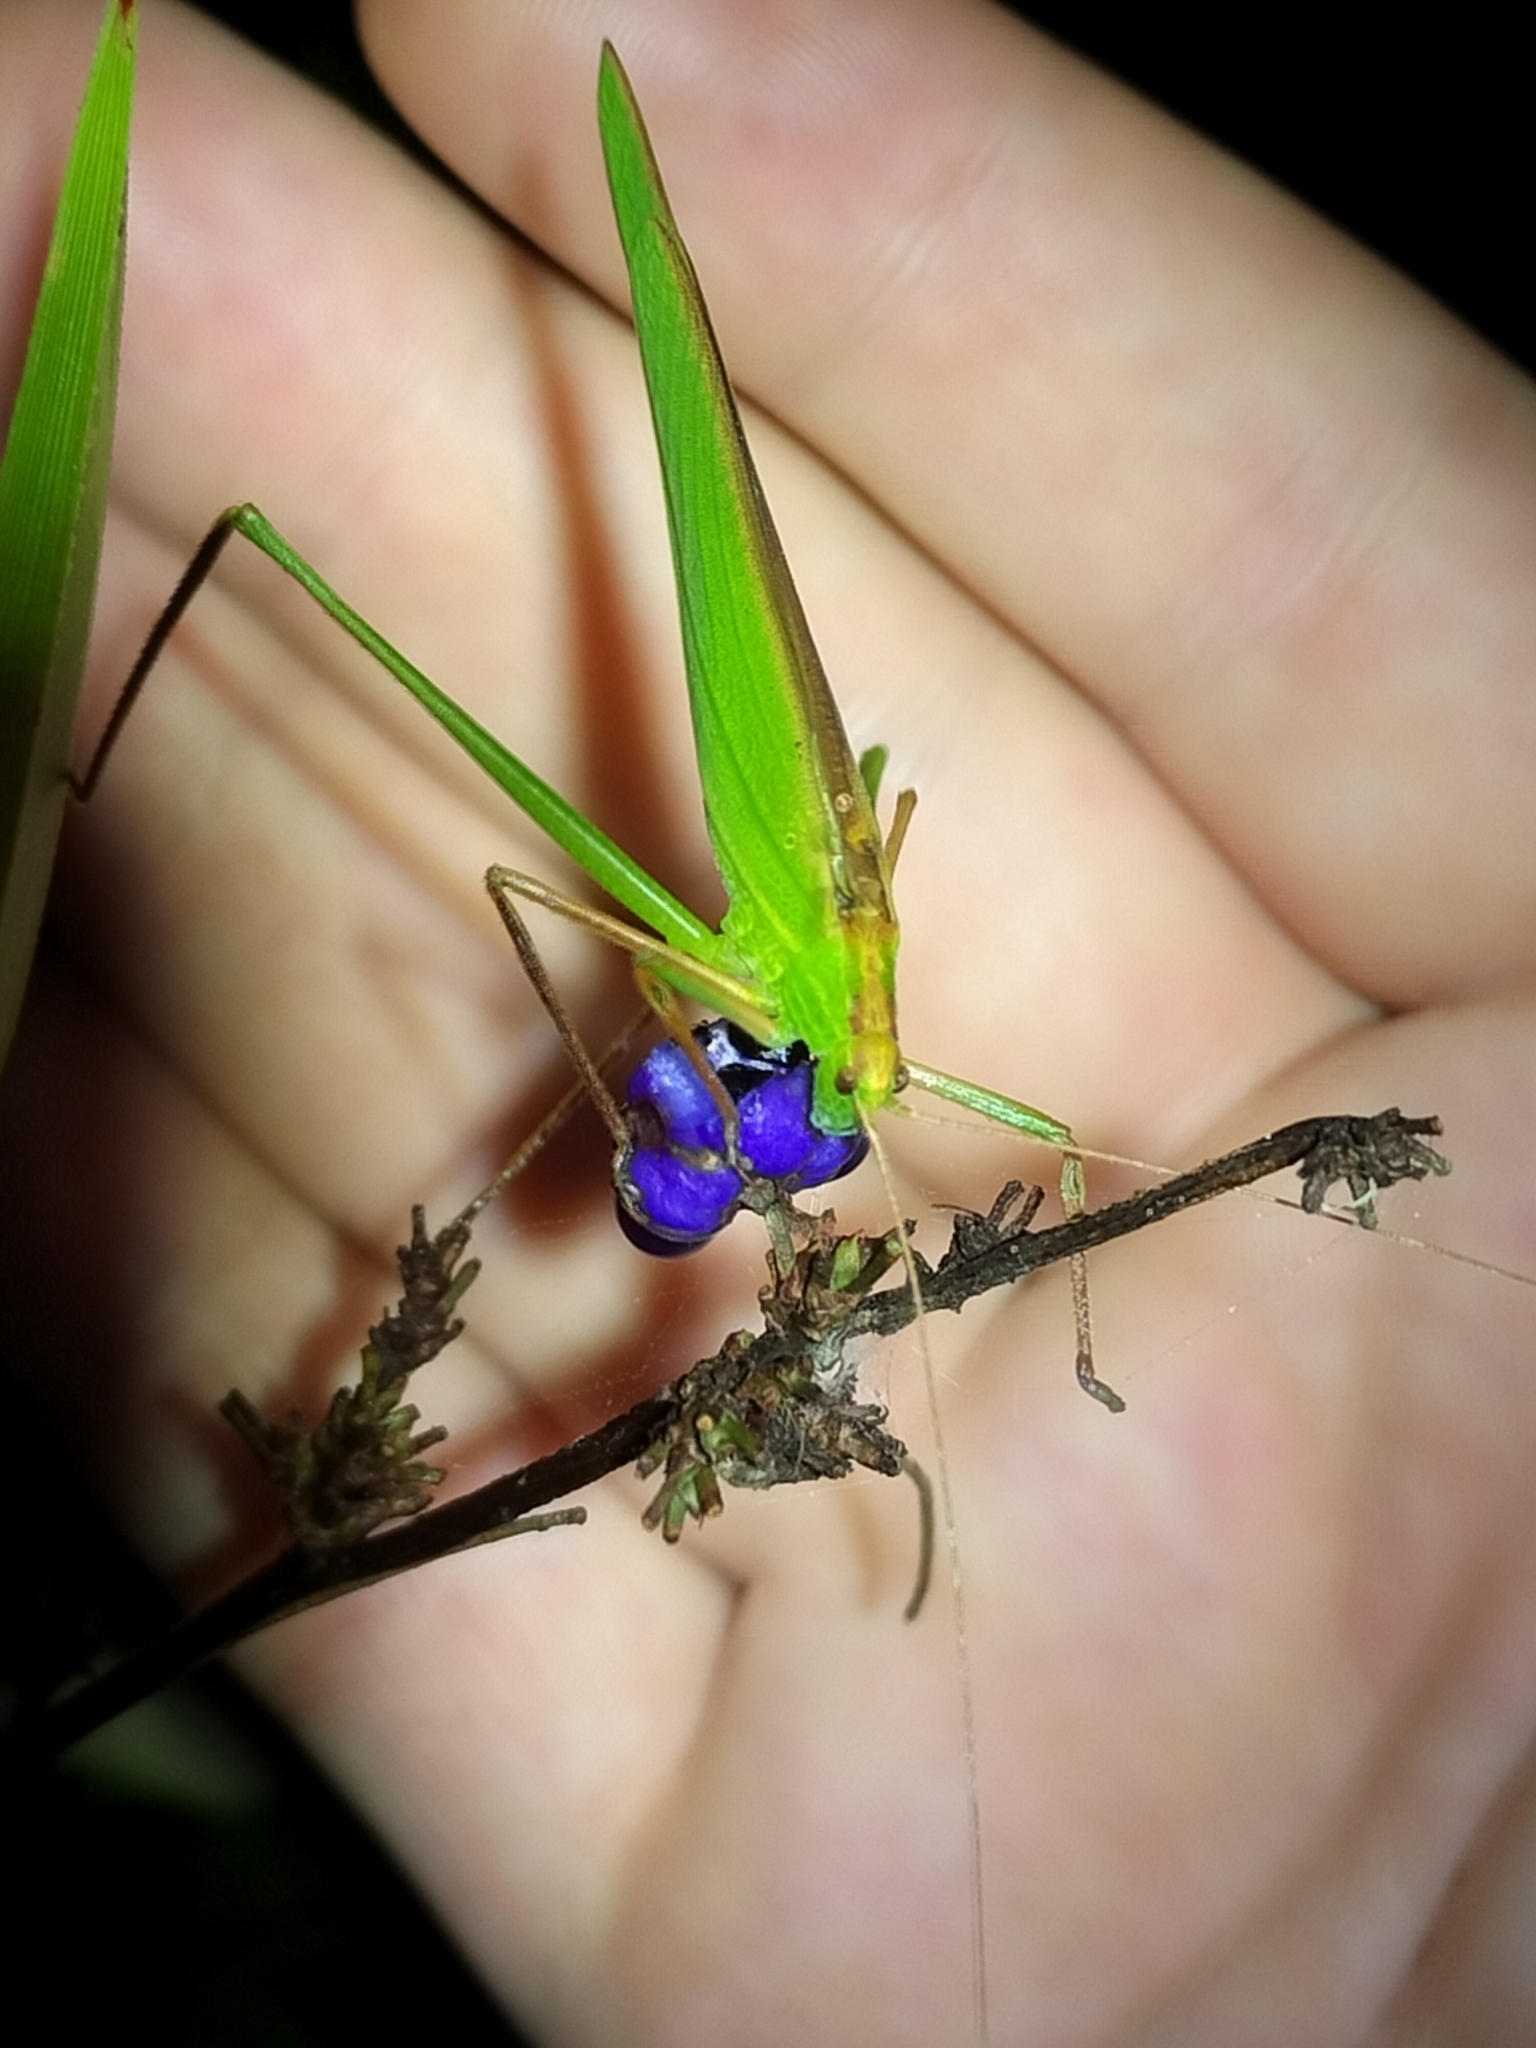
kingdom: Animalia
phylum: Arthropoda
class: Insecta
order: Orthoptera
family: Tettigoniidae
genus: Ducetia
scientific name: Ducetia antipoda
